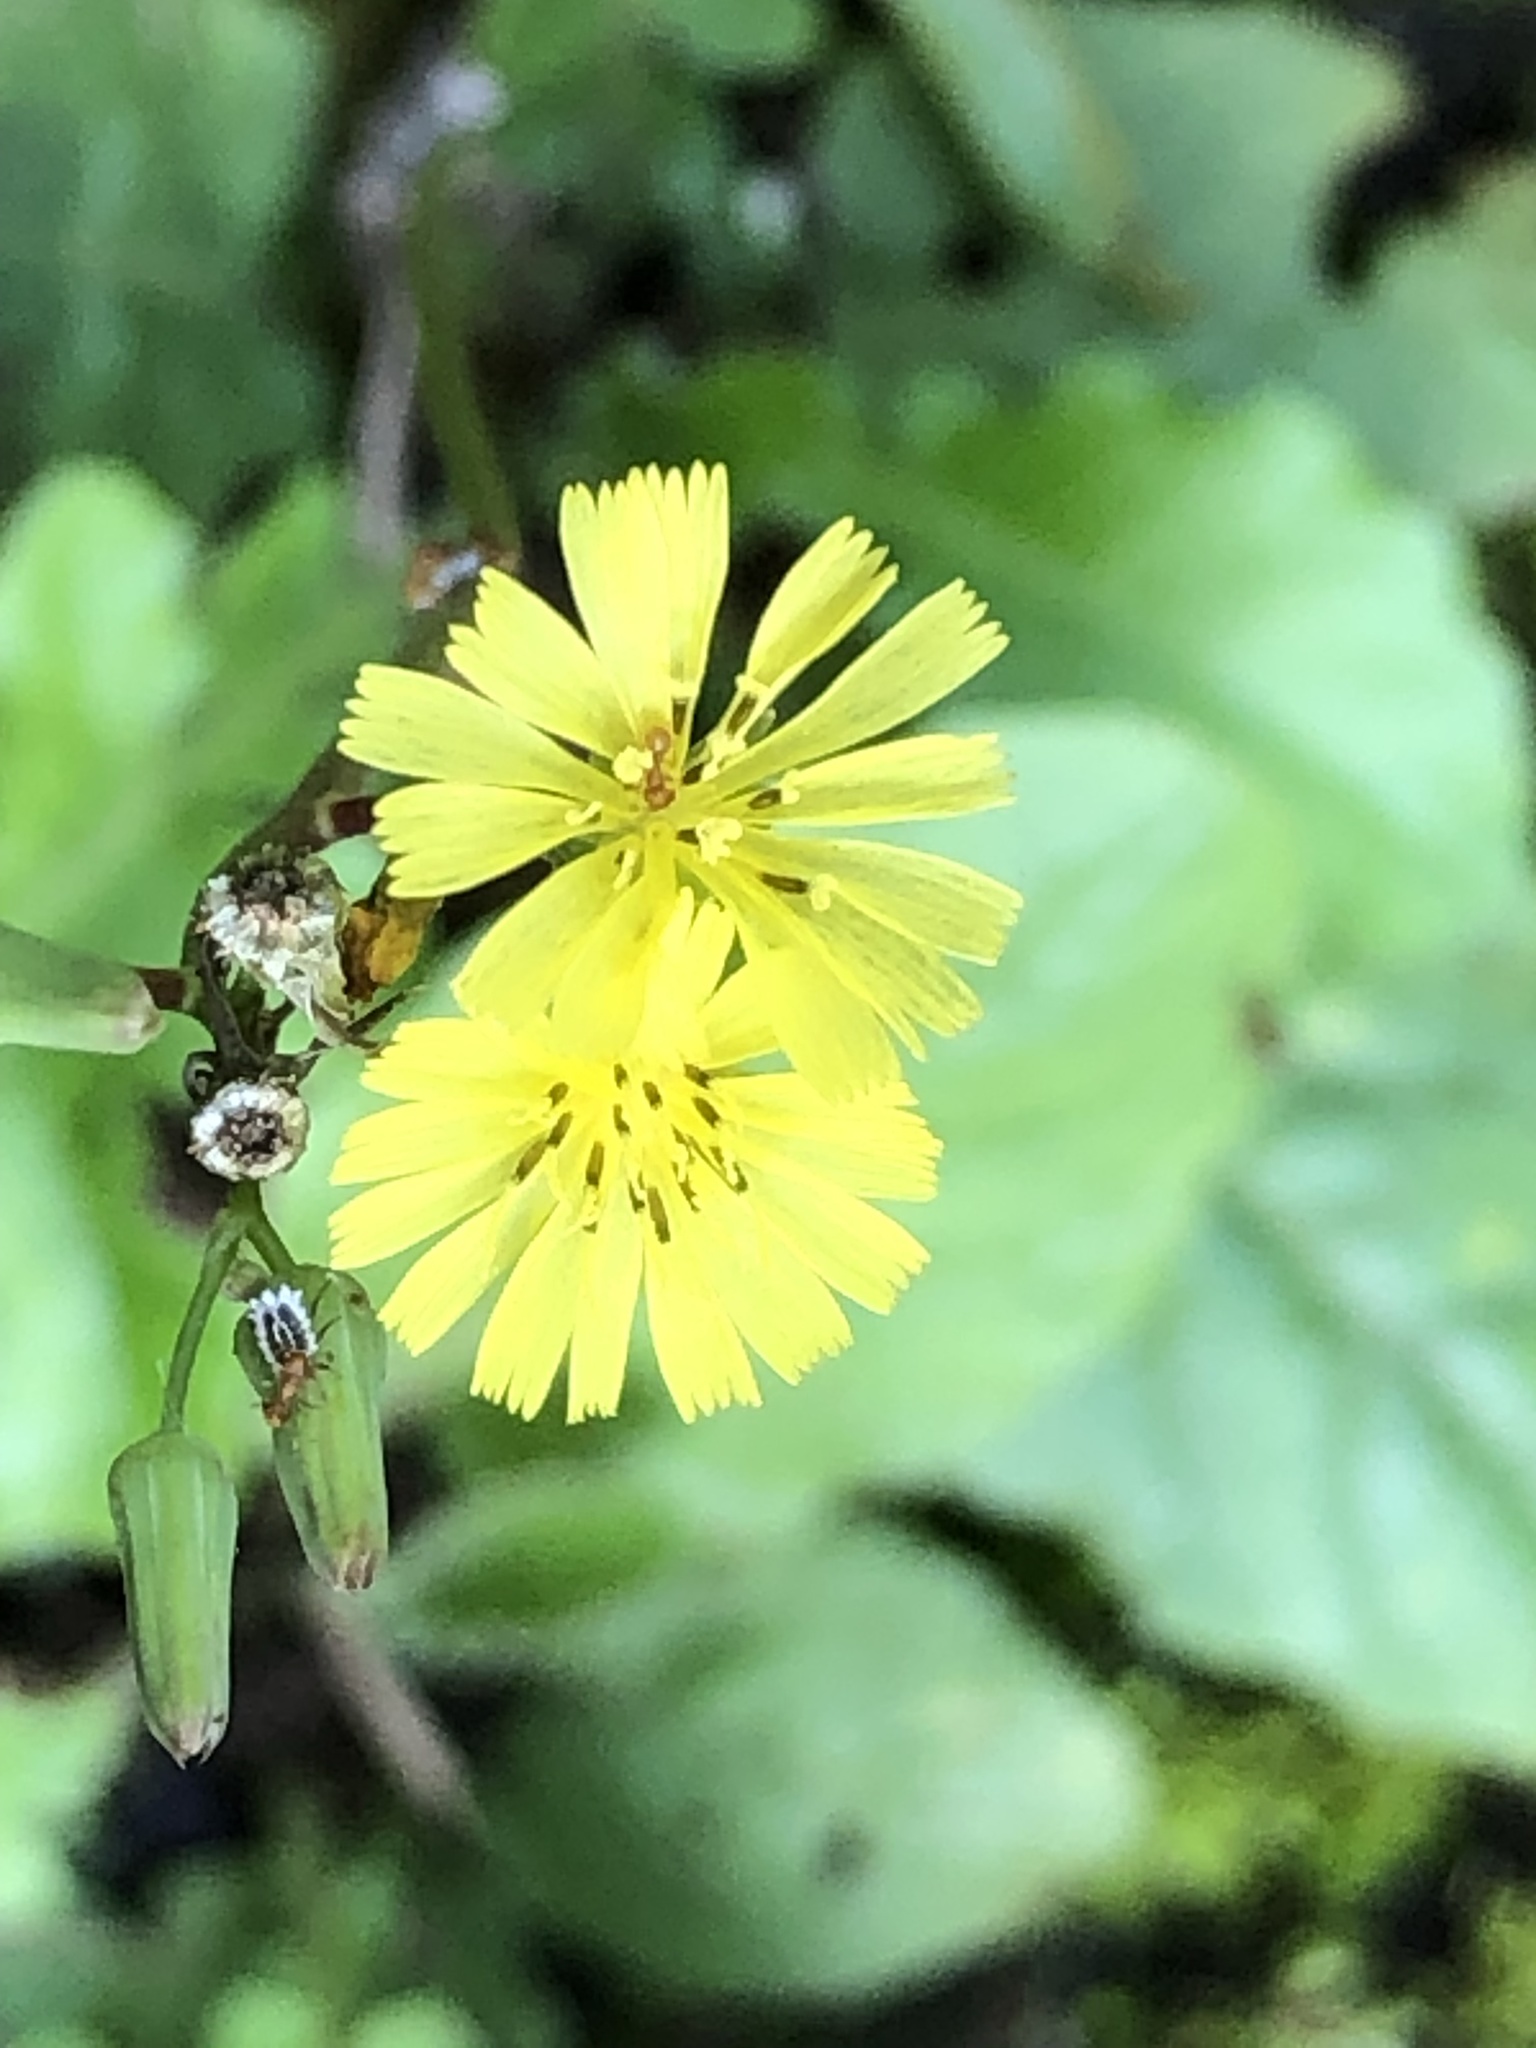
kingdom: Plantae
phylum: Tracheophyta
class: Magnoliopsida
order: Asterales
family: Asteraceae
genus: Youngia
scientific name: Youngia japonica
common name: Oriental false hawksbeard
